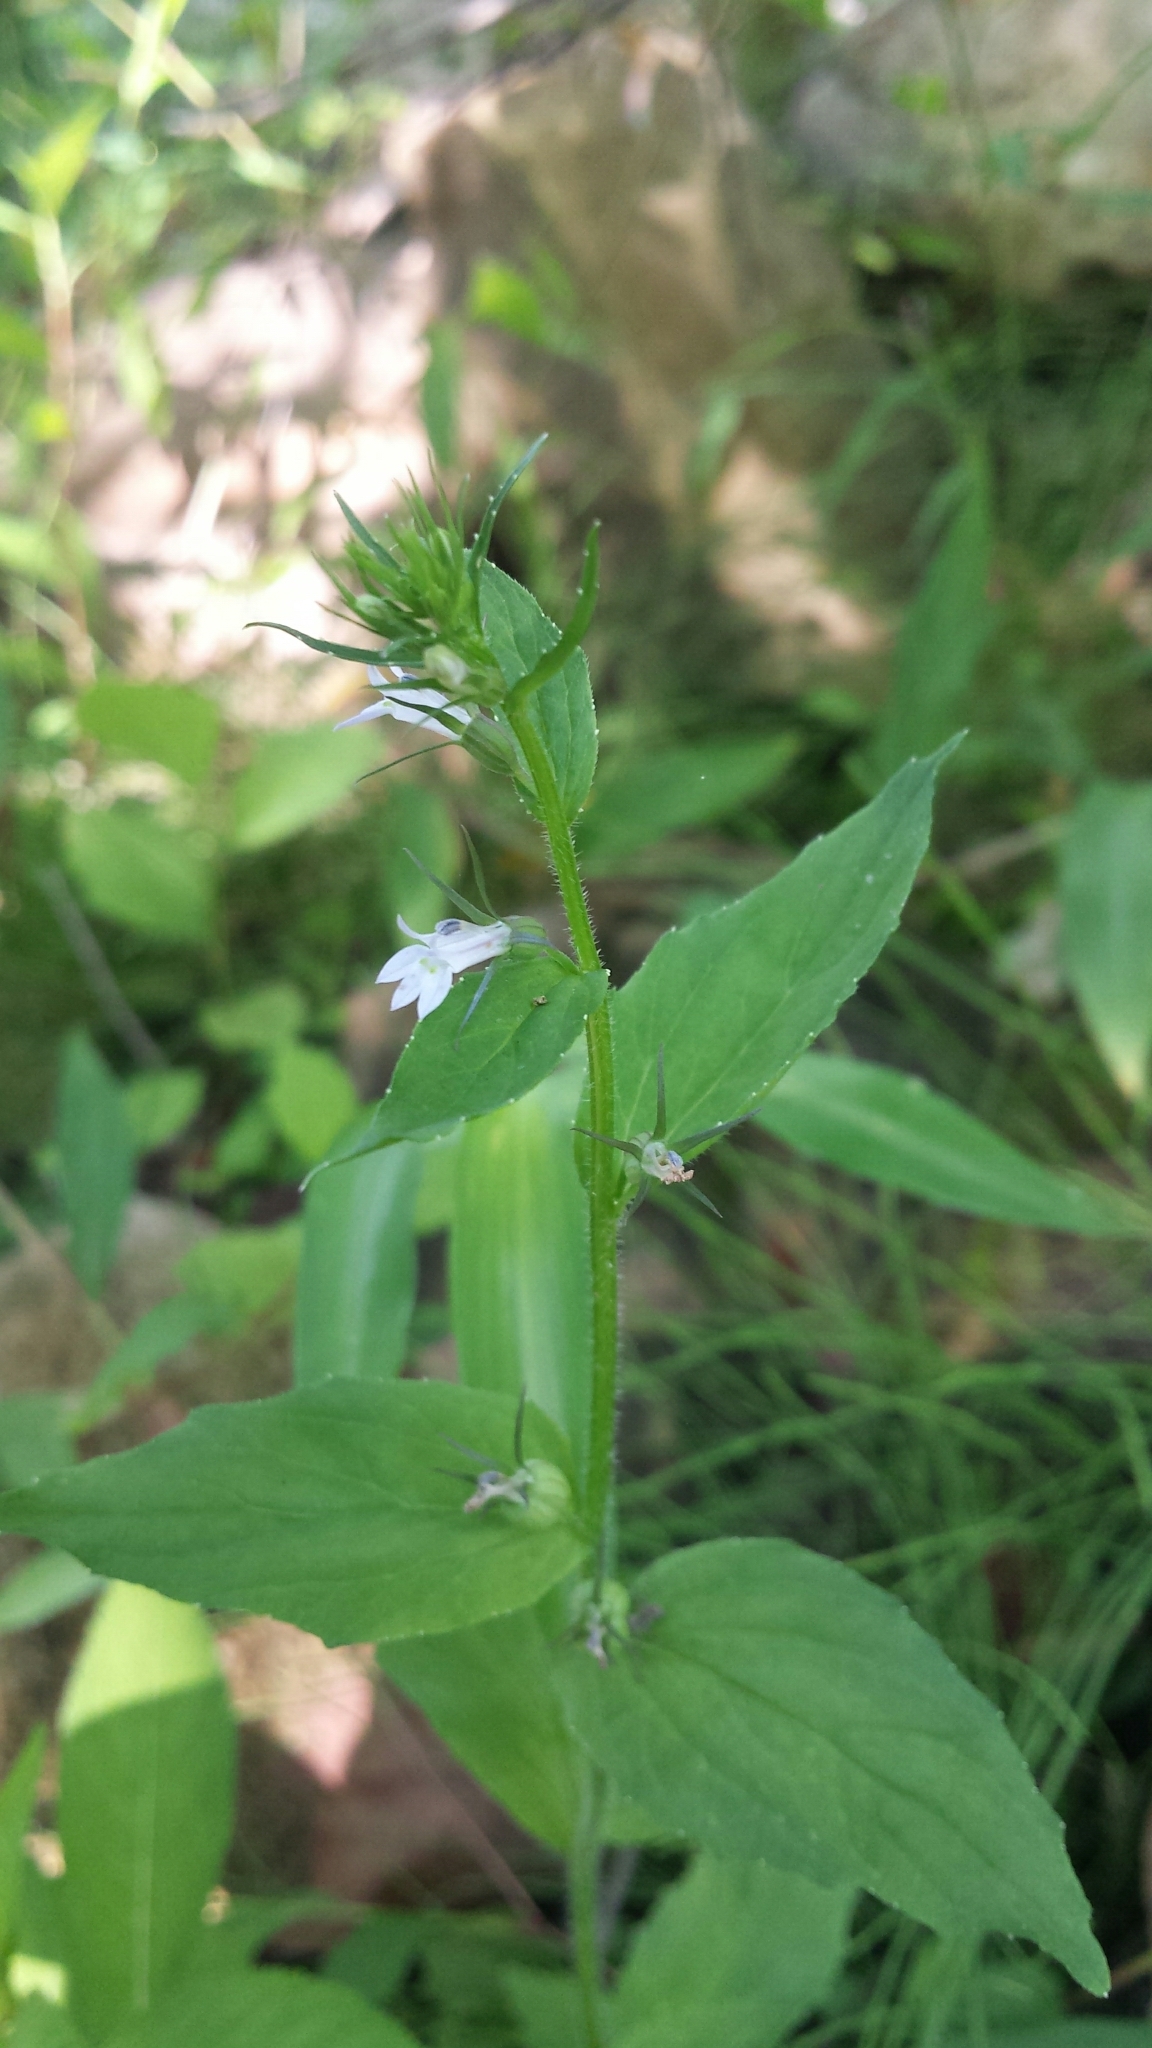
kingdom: Plantae
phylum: Tracheophyta
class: Magnoliopsida
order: Asterales
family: Campanulaceae
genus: Lobelia
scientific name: Lobelia inflata
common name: Indian tobacco
